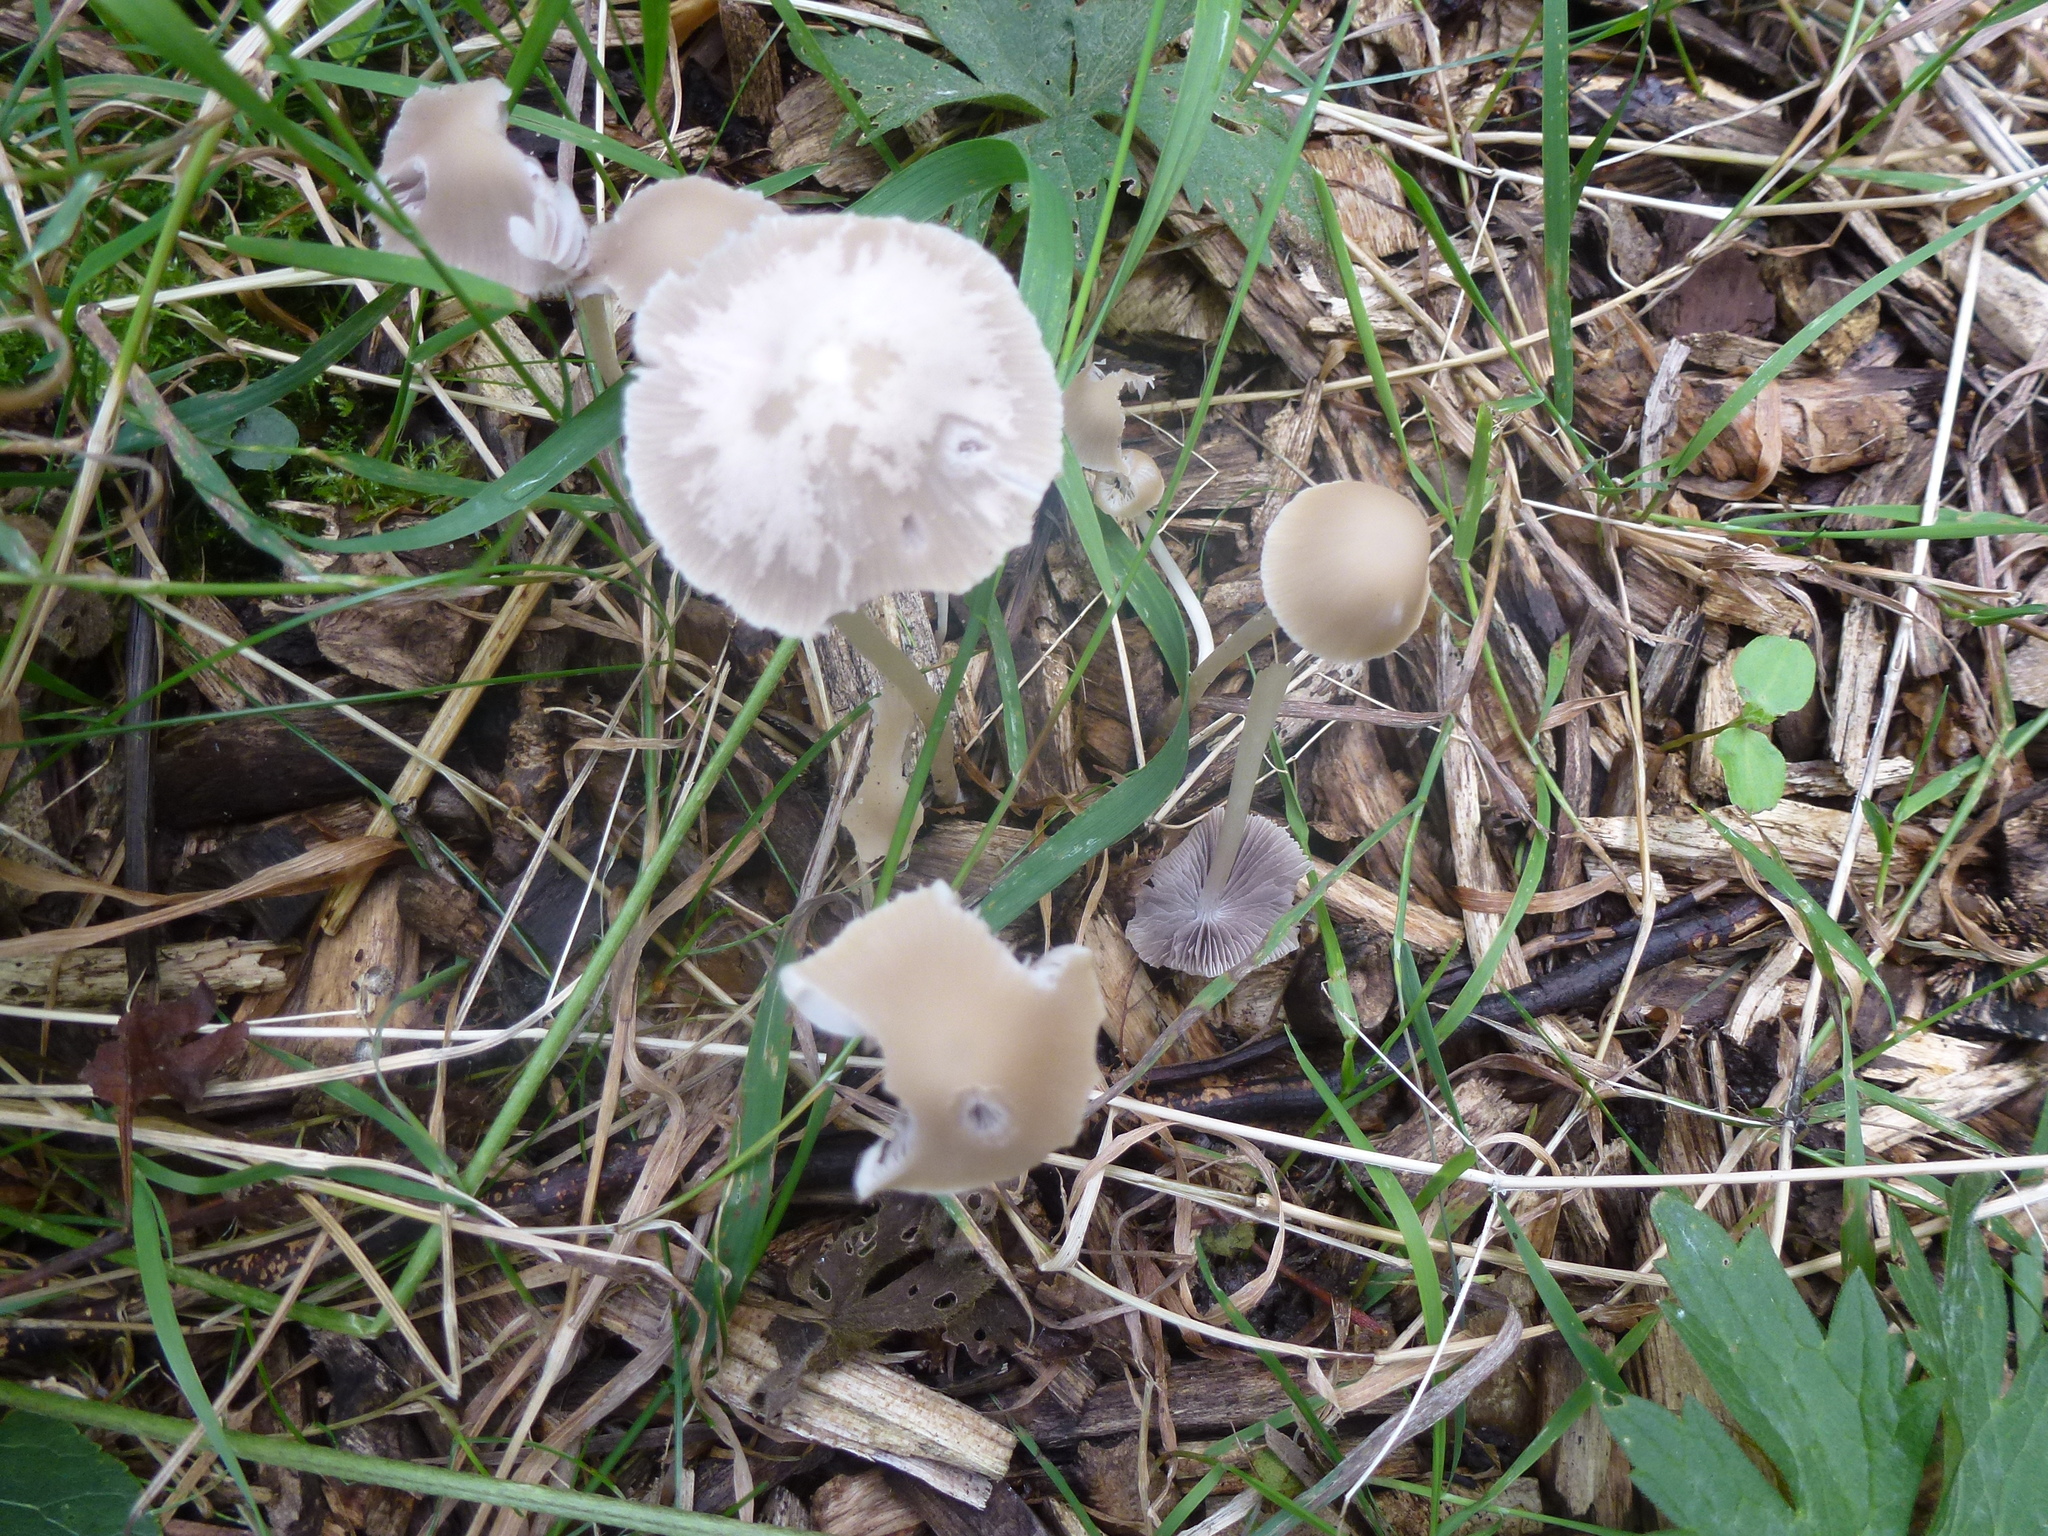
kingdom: Fungi
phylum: Basidiomycota
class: Agaricomycetes
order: Agaricales
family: Psathyrellaceae
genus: Candolleomyces
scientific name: Candolleomyces candolleanus
